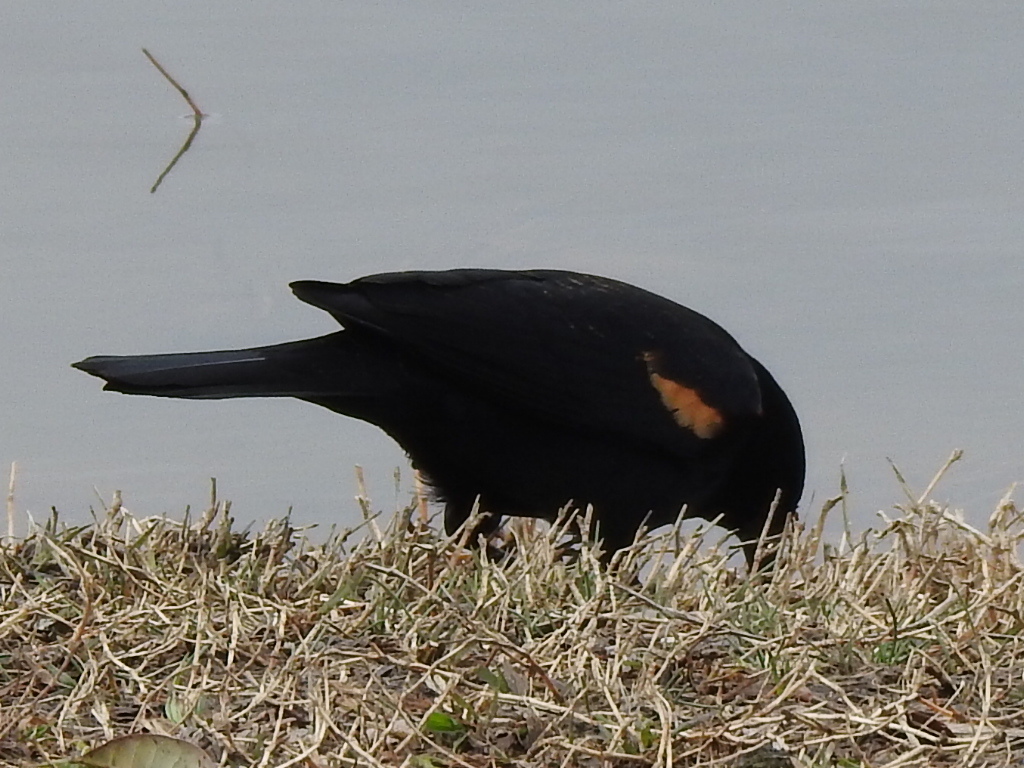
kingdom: Animalia
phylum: Chordata
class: Aves
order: Passeriformes
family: Icteridae
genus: Agelaius
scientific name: Agelaius phoeniceus
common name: Red-winged blackbird
